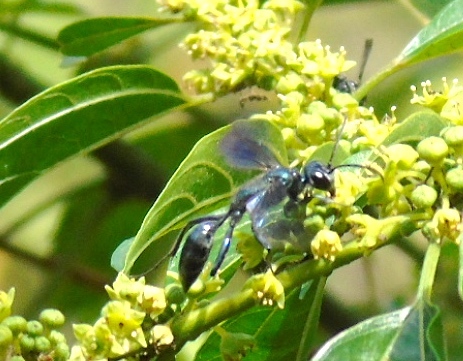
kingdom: Animalia
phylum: Arthropoda
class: Insecta
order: Hymenoptera
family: Sphecidae
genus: Chalybion
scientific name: Chalybion
